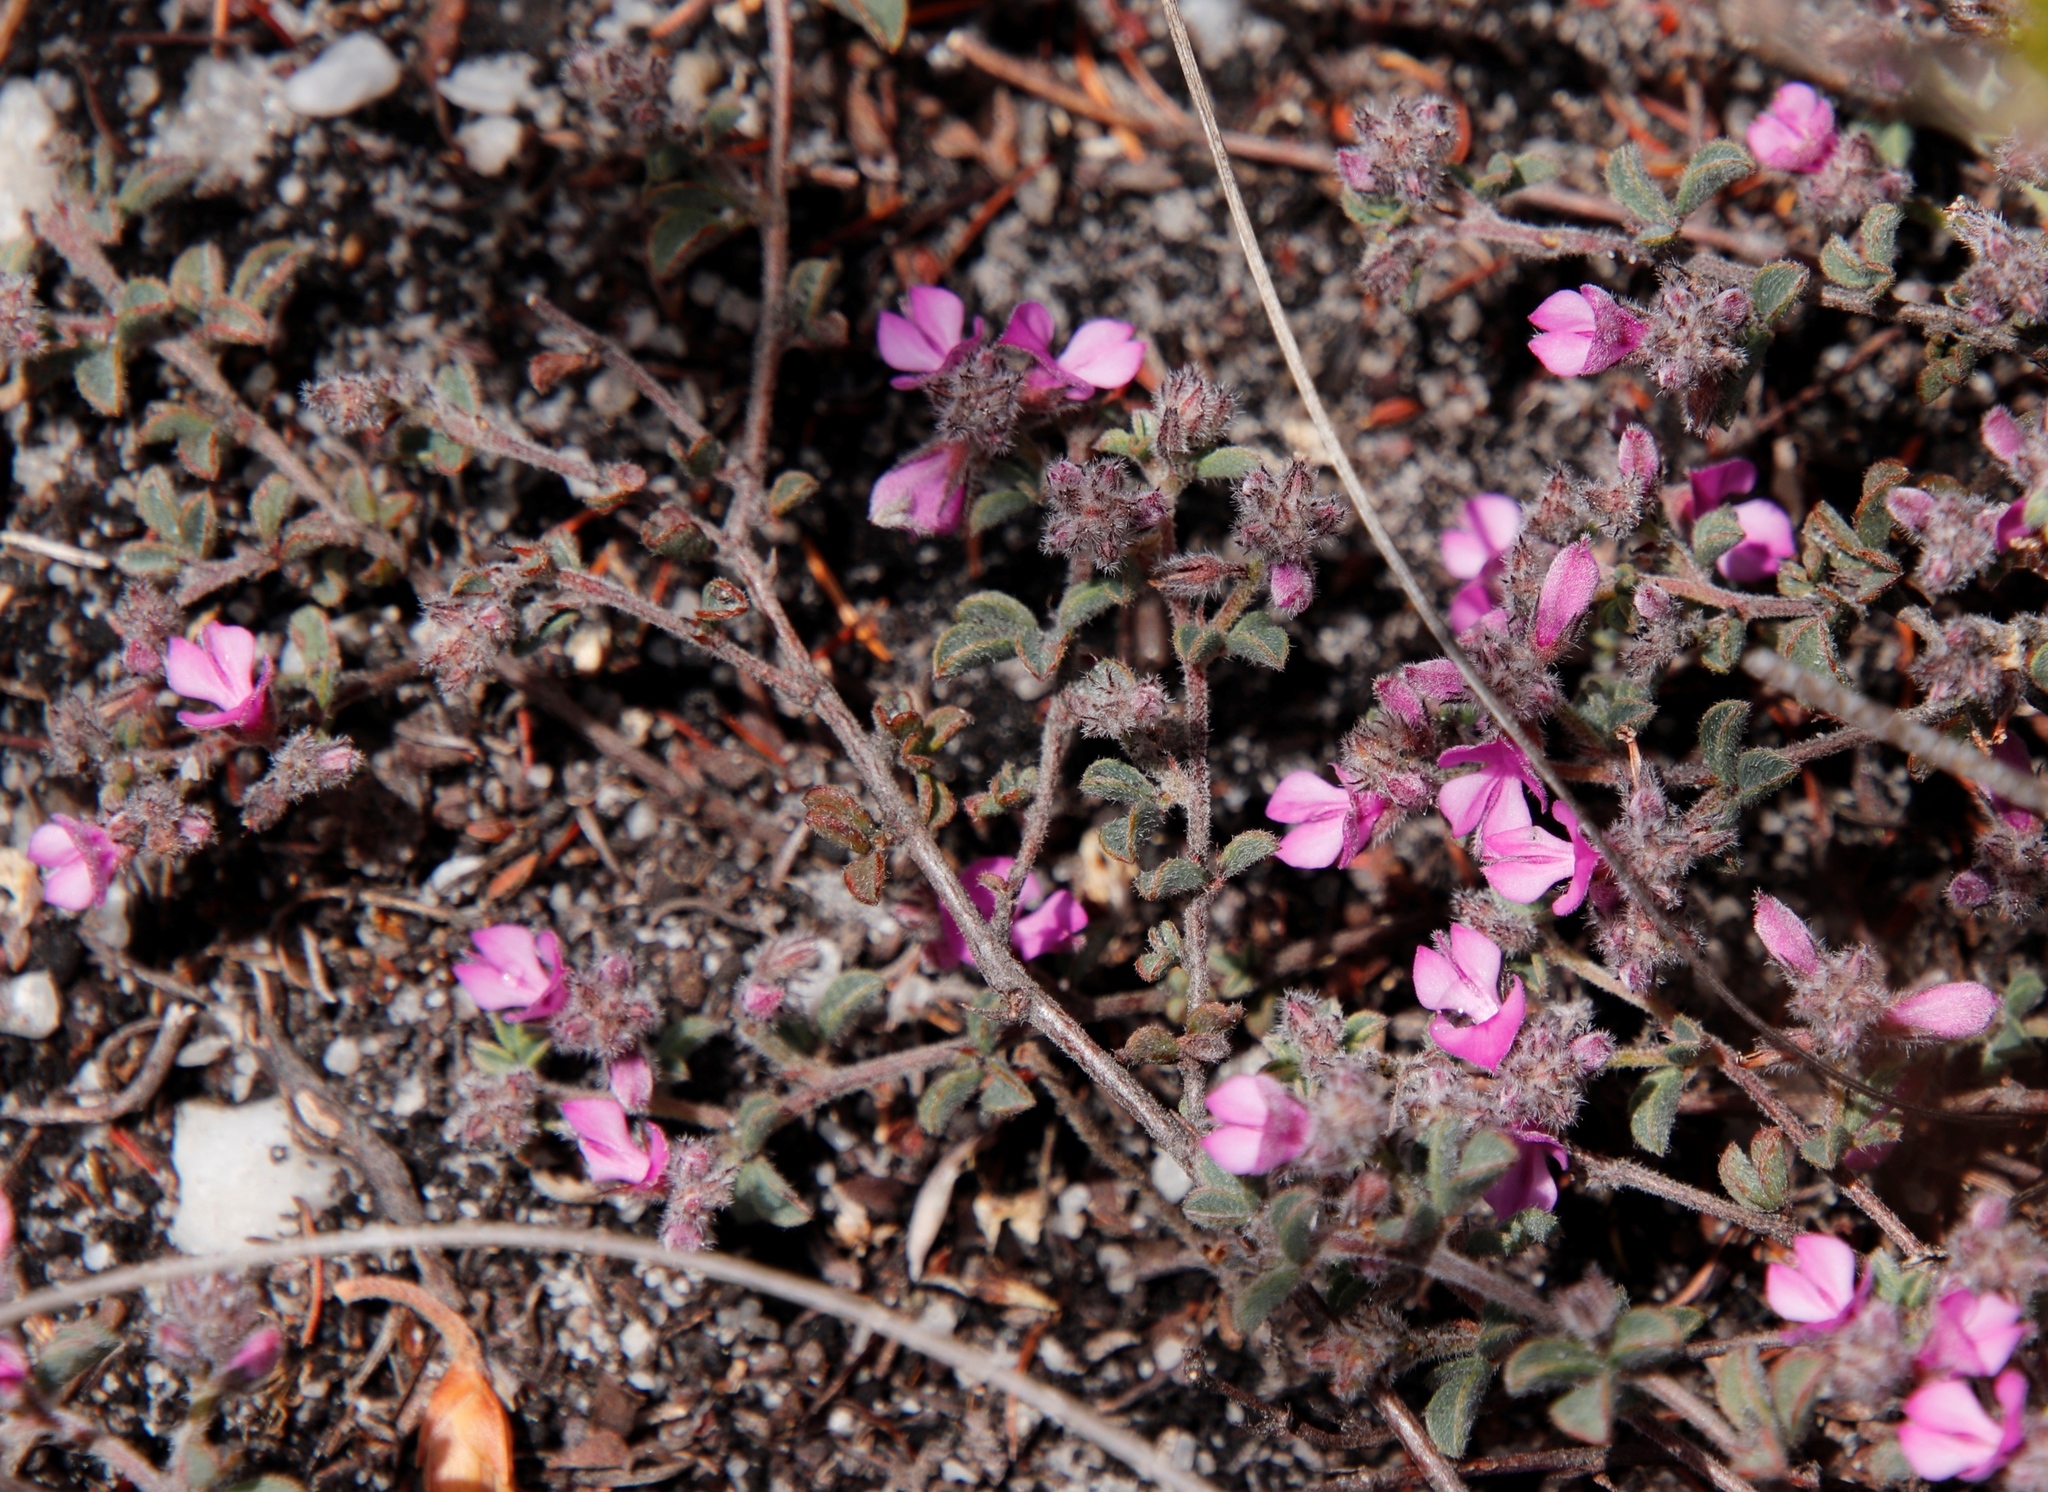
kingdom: Plantae
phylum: Tracheophyta
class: Magnoliopsida
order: Fabales
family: Fabaceae
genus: Indigofera
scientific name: Indigofera
